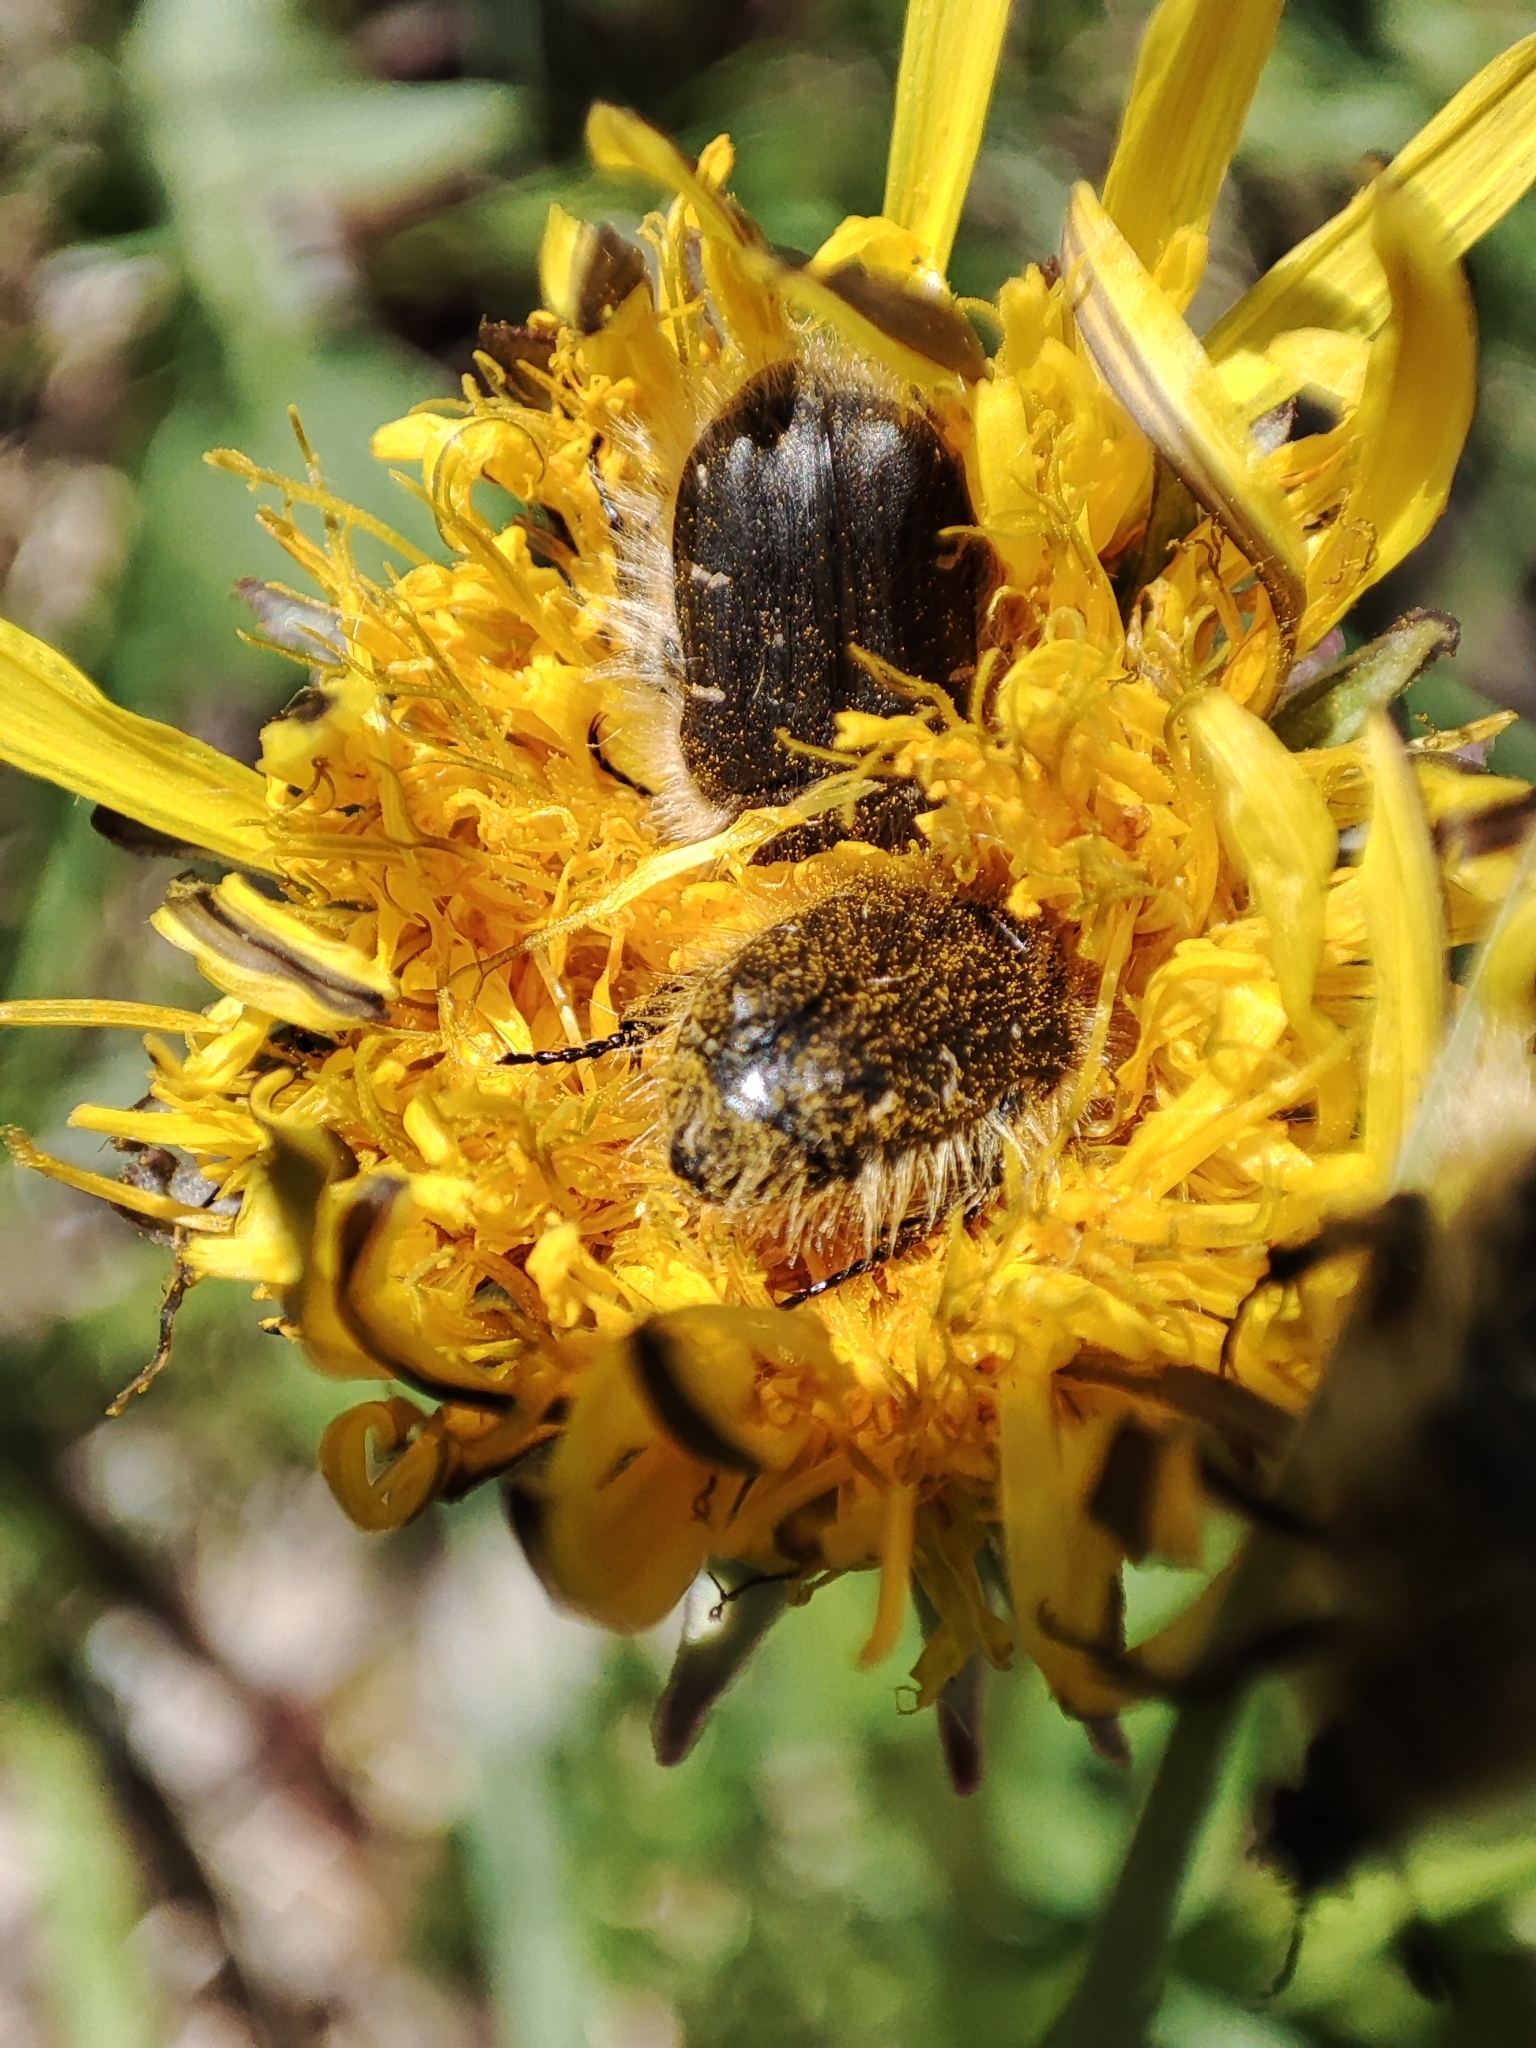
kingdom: Animalia
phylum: Arthropoda
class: Insecta
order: Coleoptera
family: Scarabaeidae
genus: Tropinota
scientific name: Tropinota hirta
